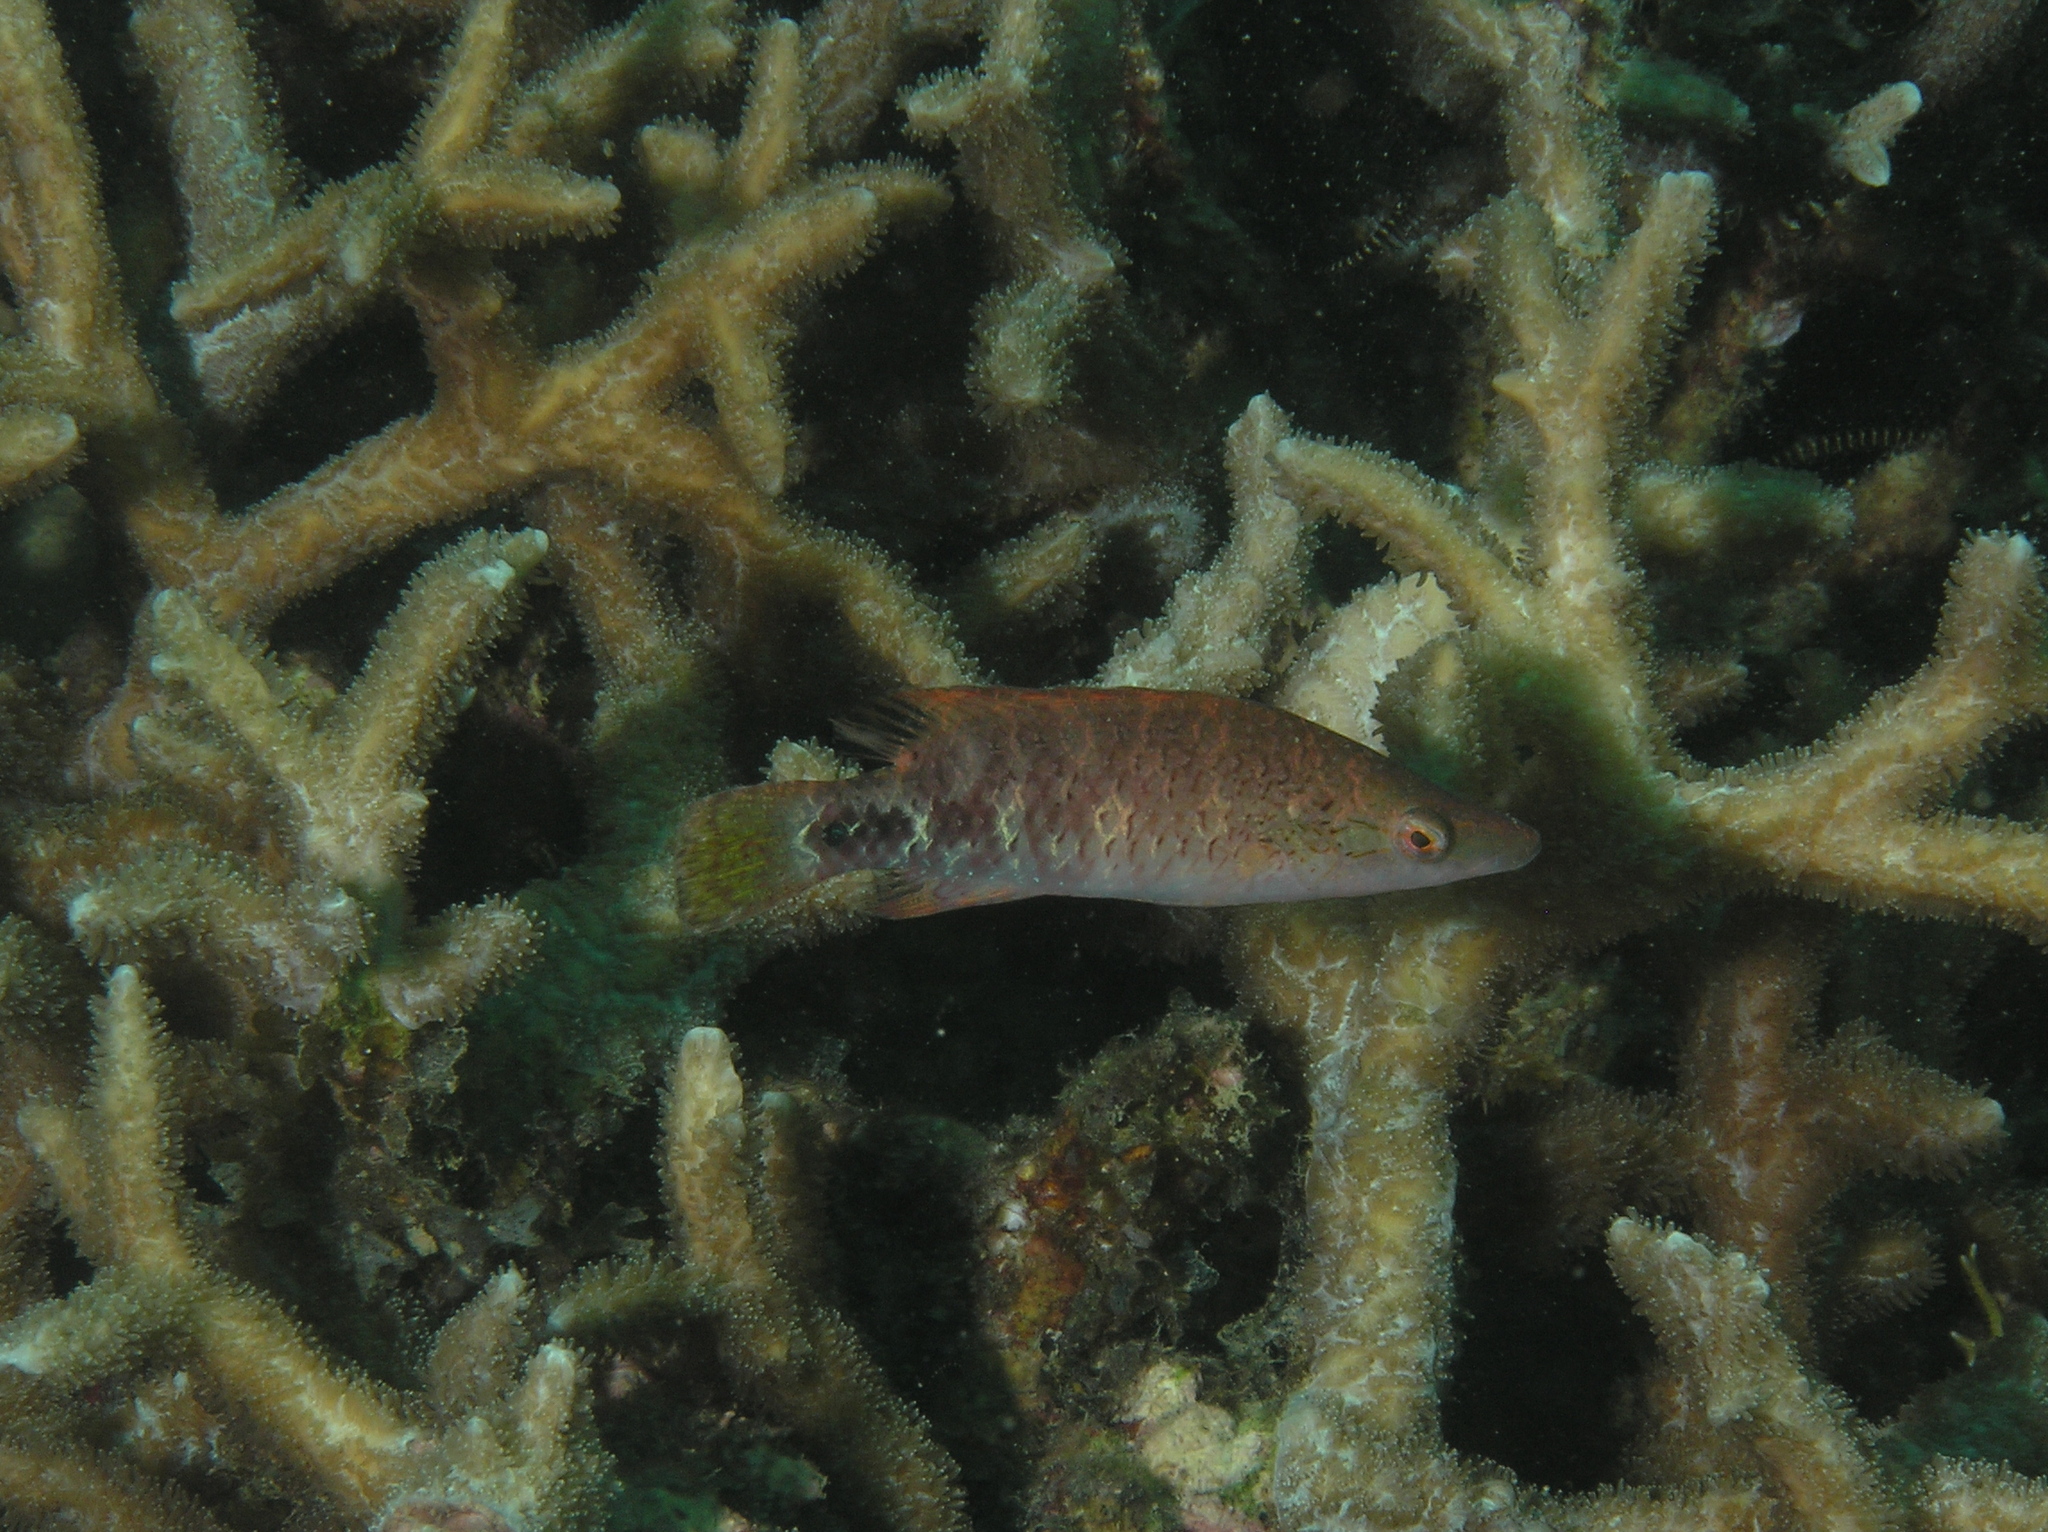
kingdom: Animalia
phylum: Chordata
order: Perciformes
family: Labridae
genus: Oxycheilinus
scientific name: Oxycheilinus celebicus
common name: Celebes maori wrasse
